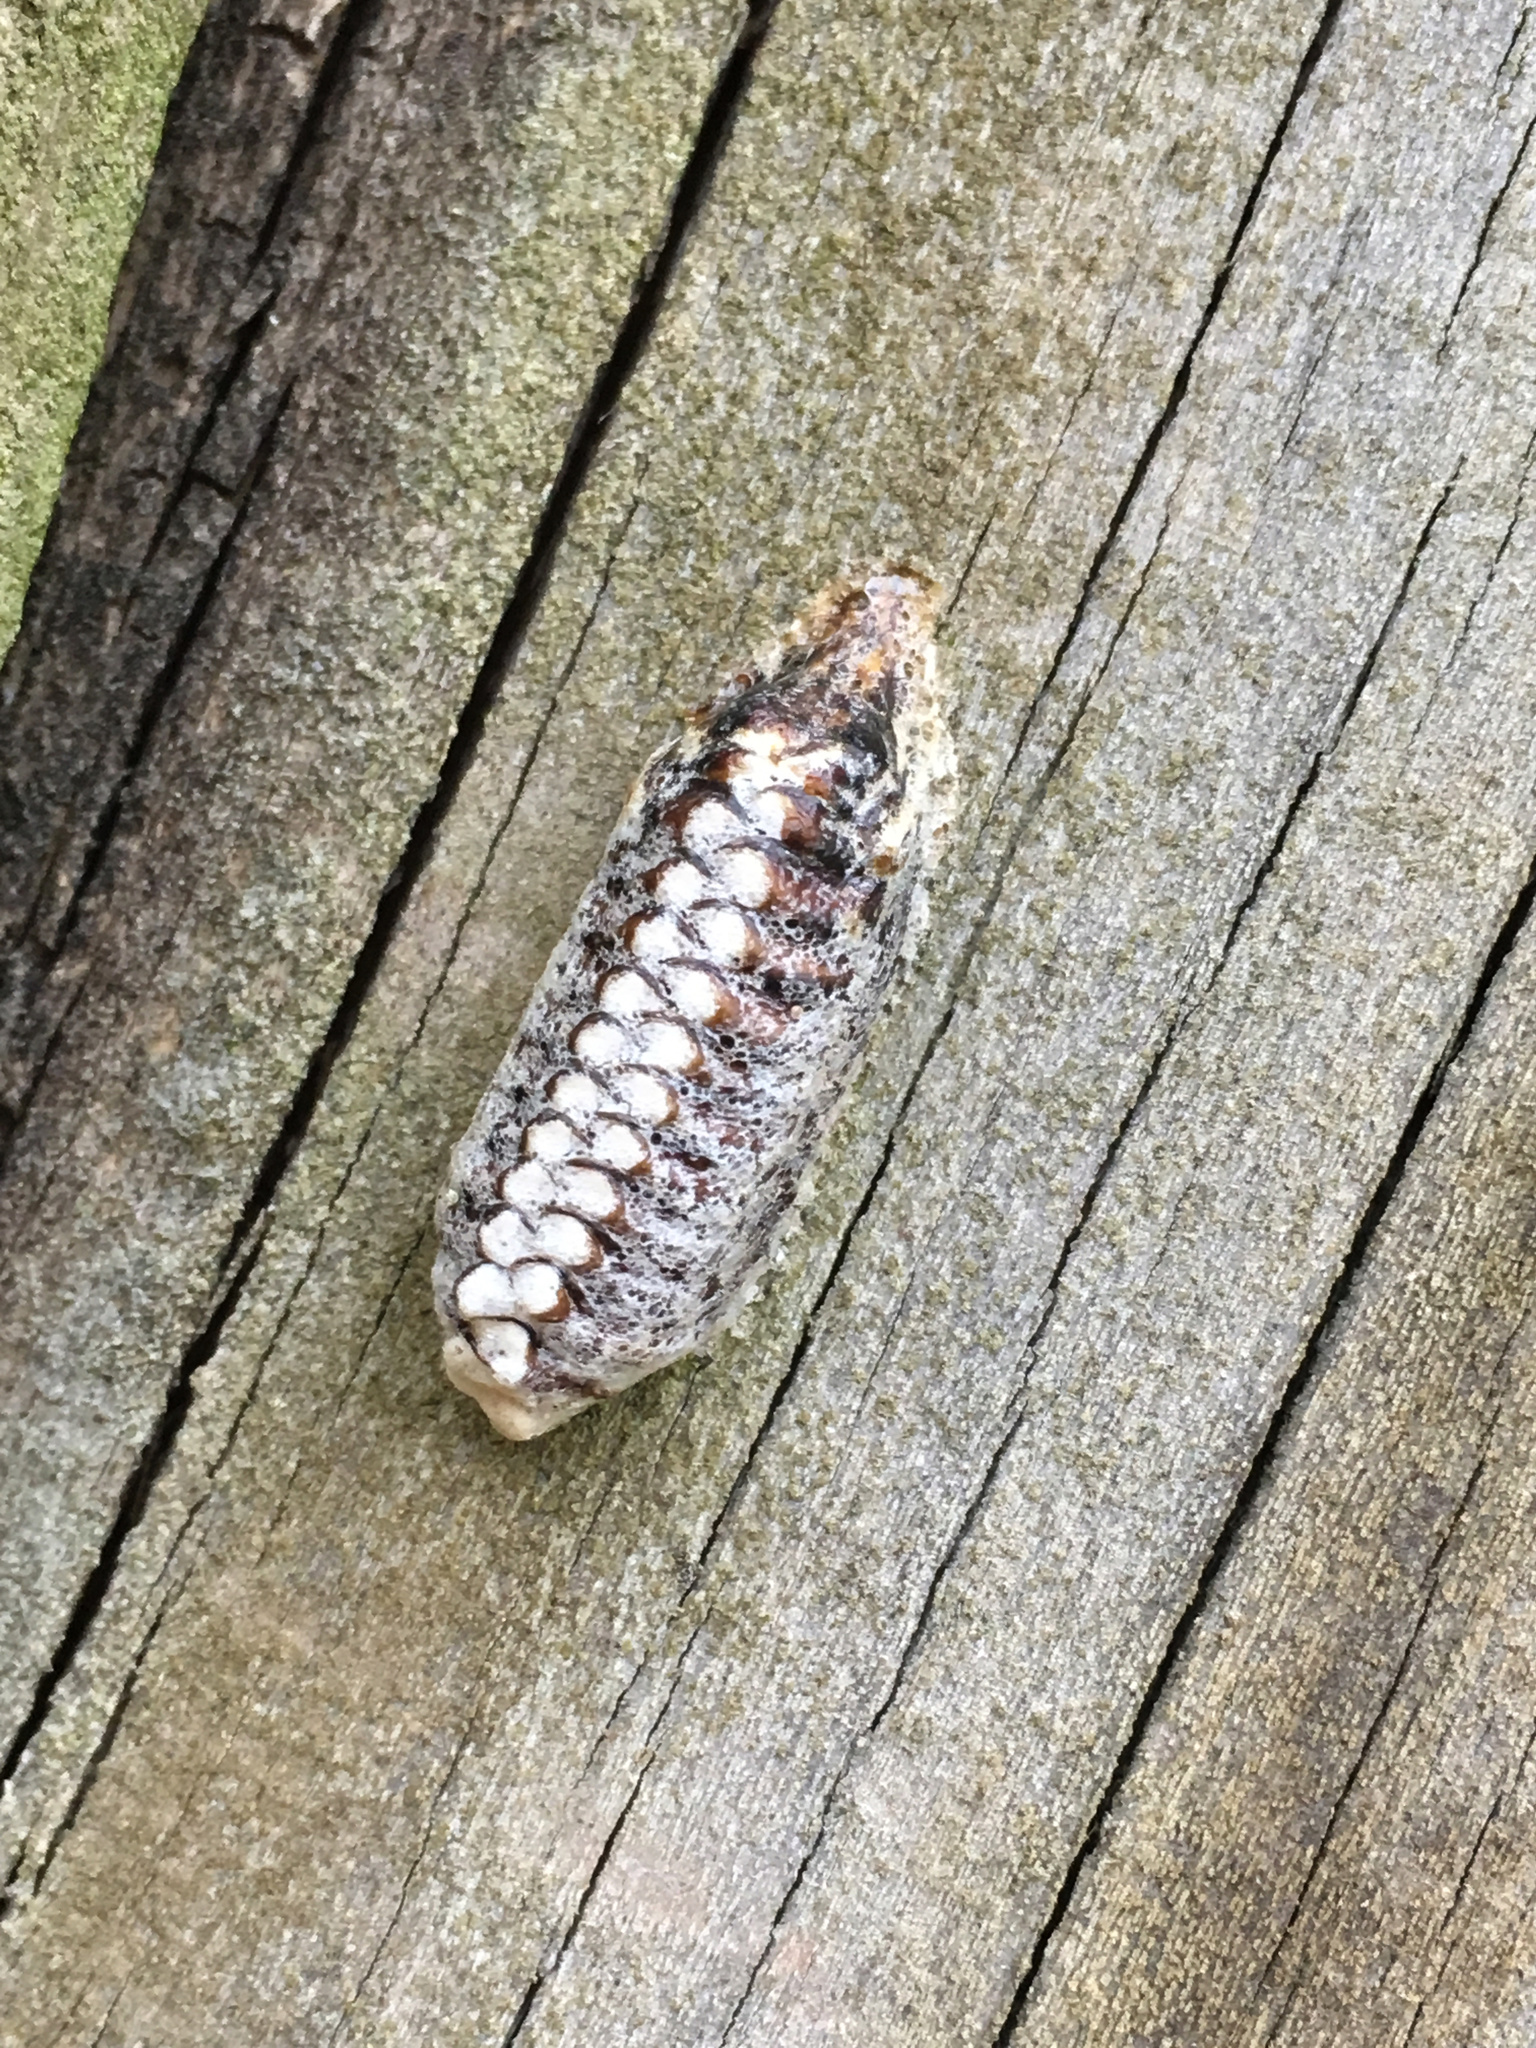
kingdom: Animalia
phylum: Arthropoda
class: Insecta
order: Mantodea
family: Mantidae
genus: Orthodera
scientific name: Orthodera novaezealandiae
